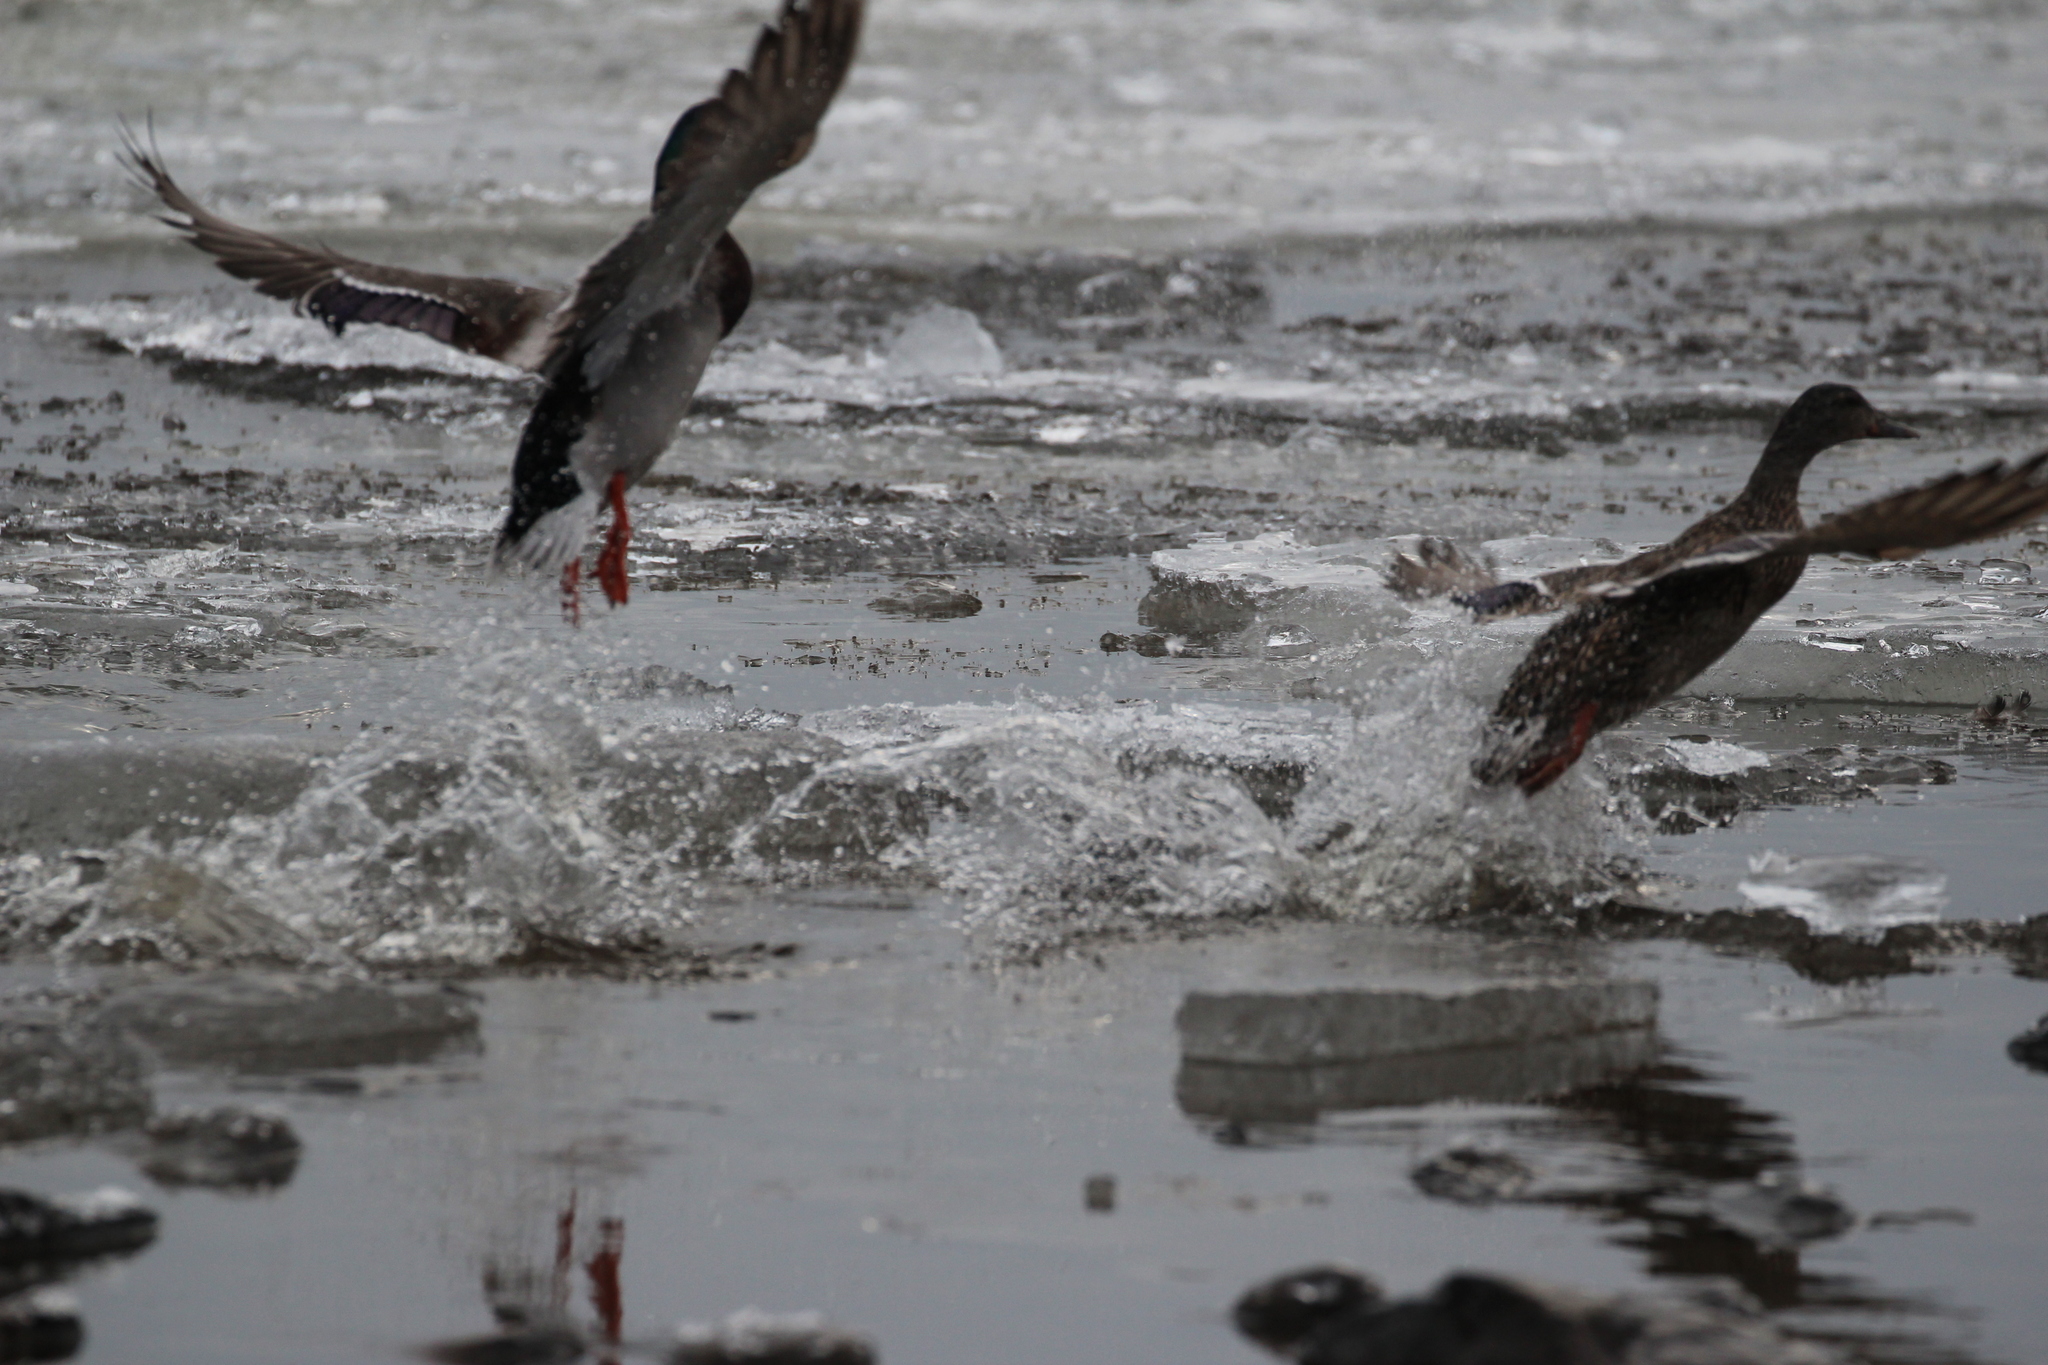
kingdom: Animalia
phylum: Chordata
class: Aves
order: Anseriformes
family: Anatidae
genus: Anas
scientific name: Anas platyrhynchos
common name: Mallard
